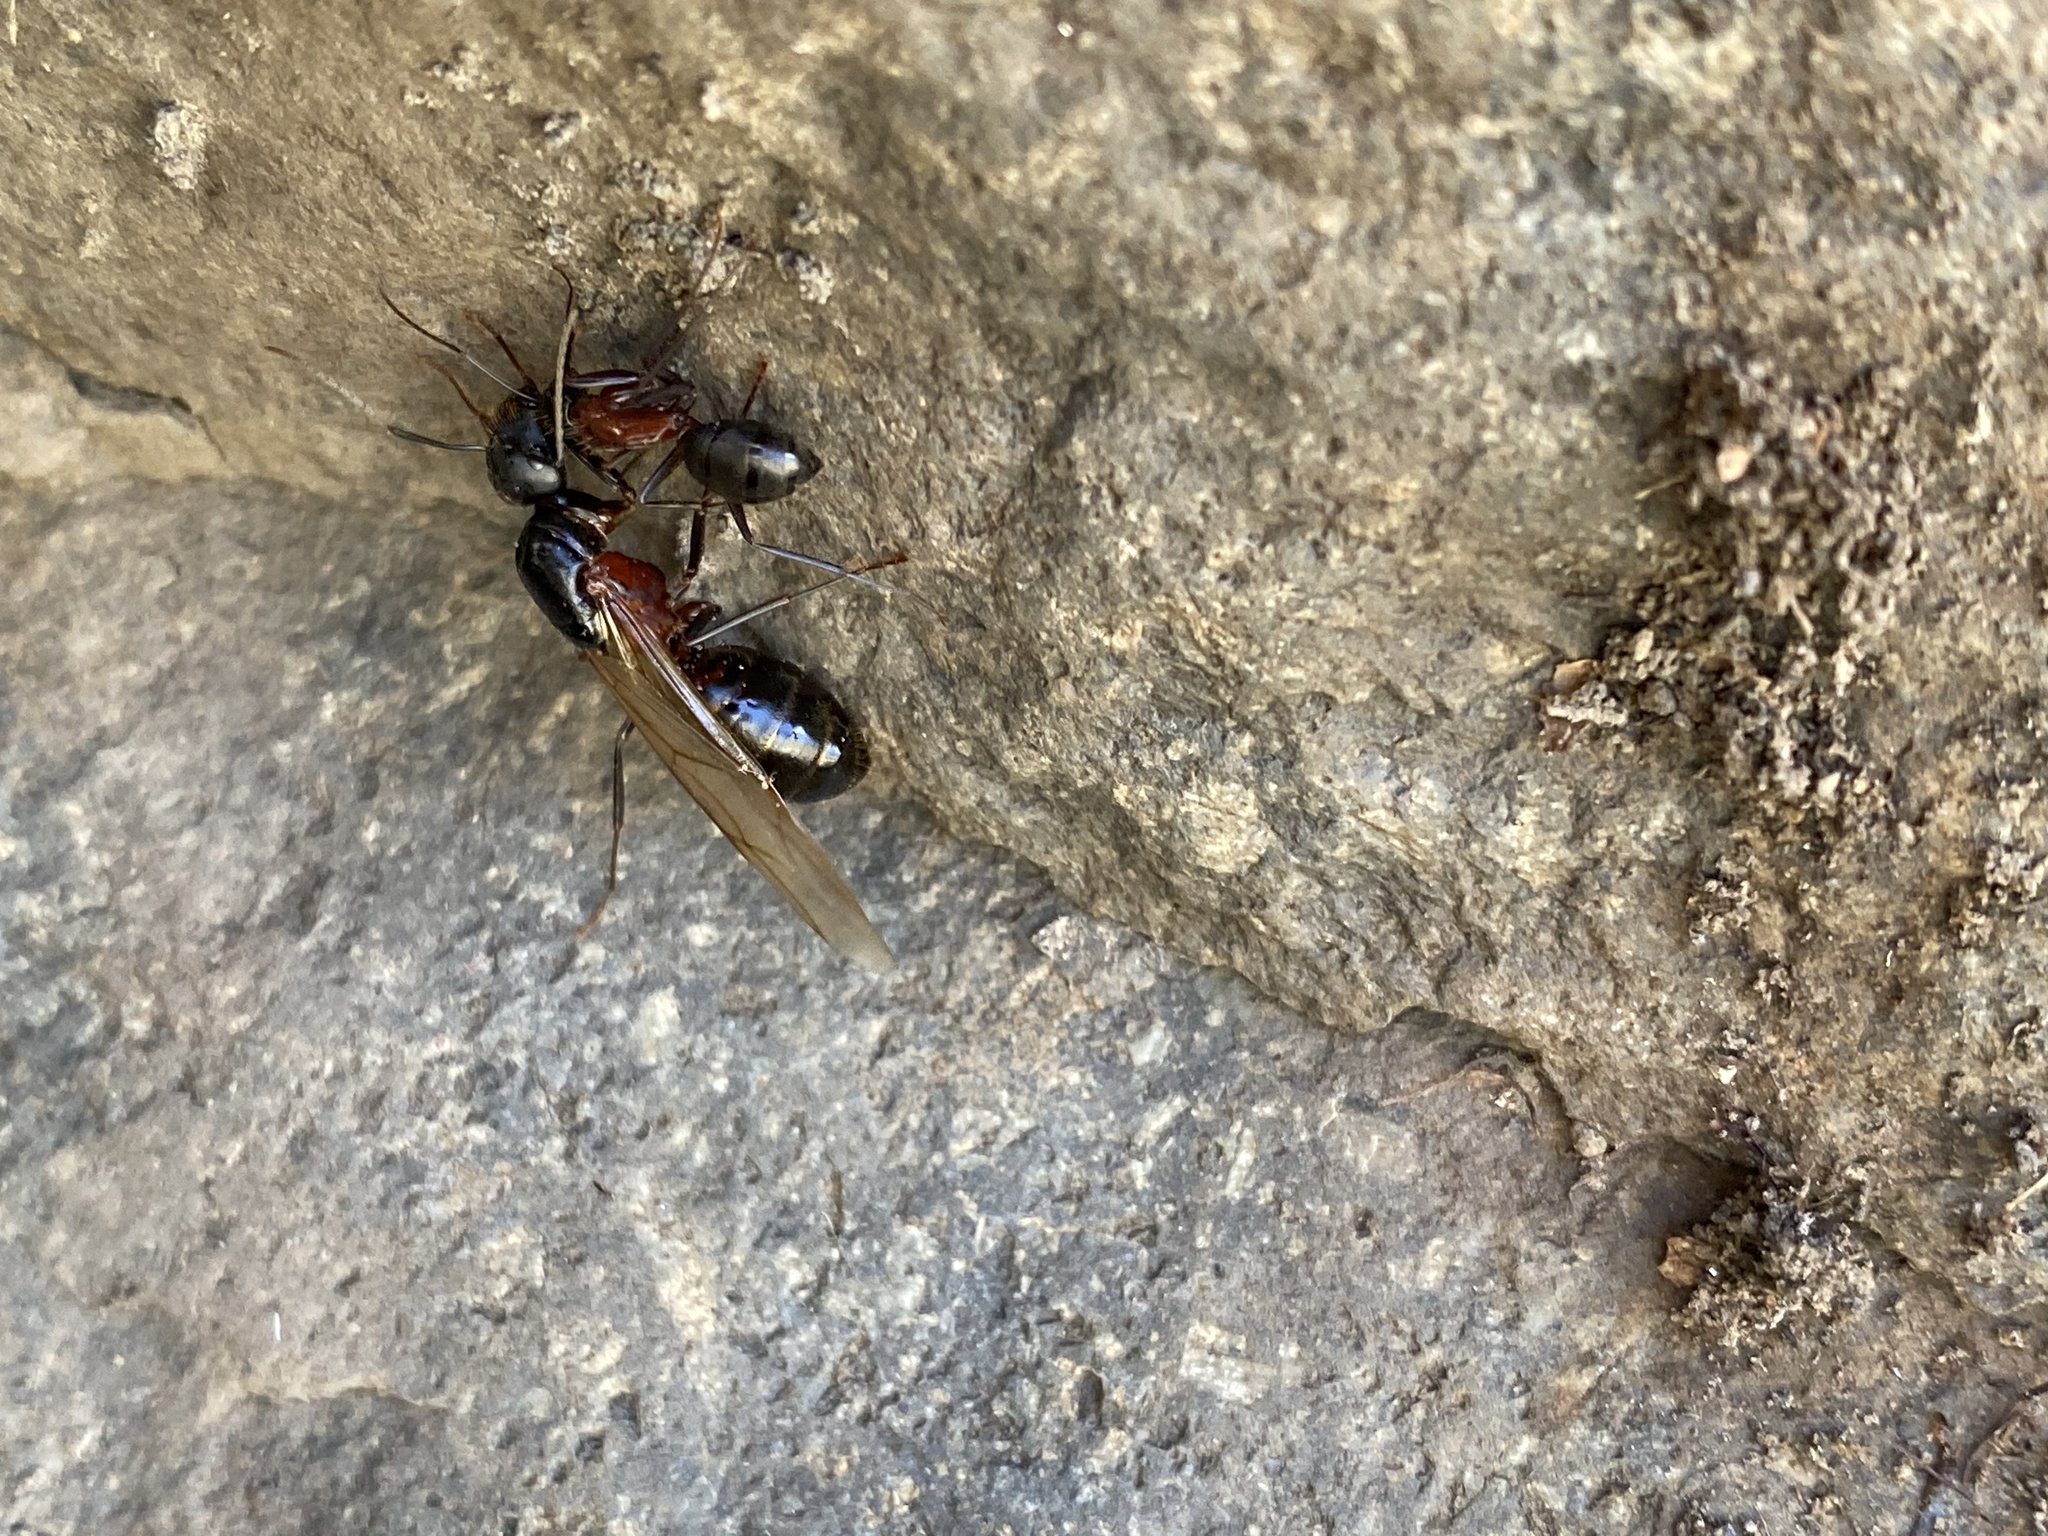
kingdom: Animalia
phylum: Arthropoda
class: Insecta
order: Hymenoptera
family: Formicidae
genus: Camponotus
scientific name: Camponotus vicinus
